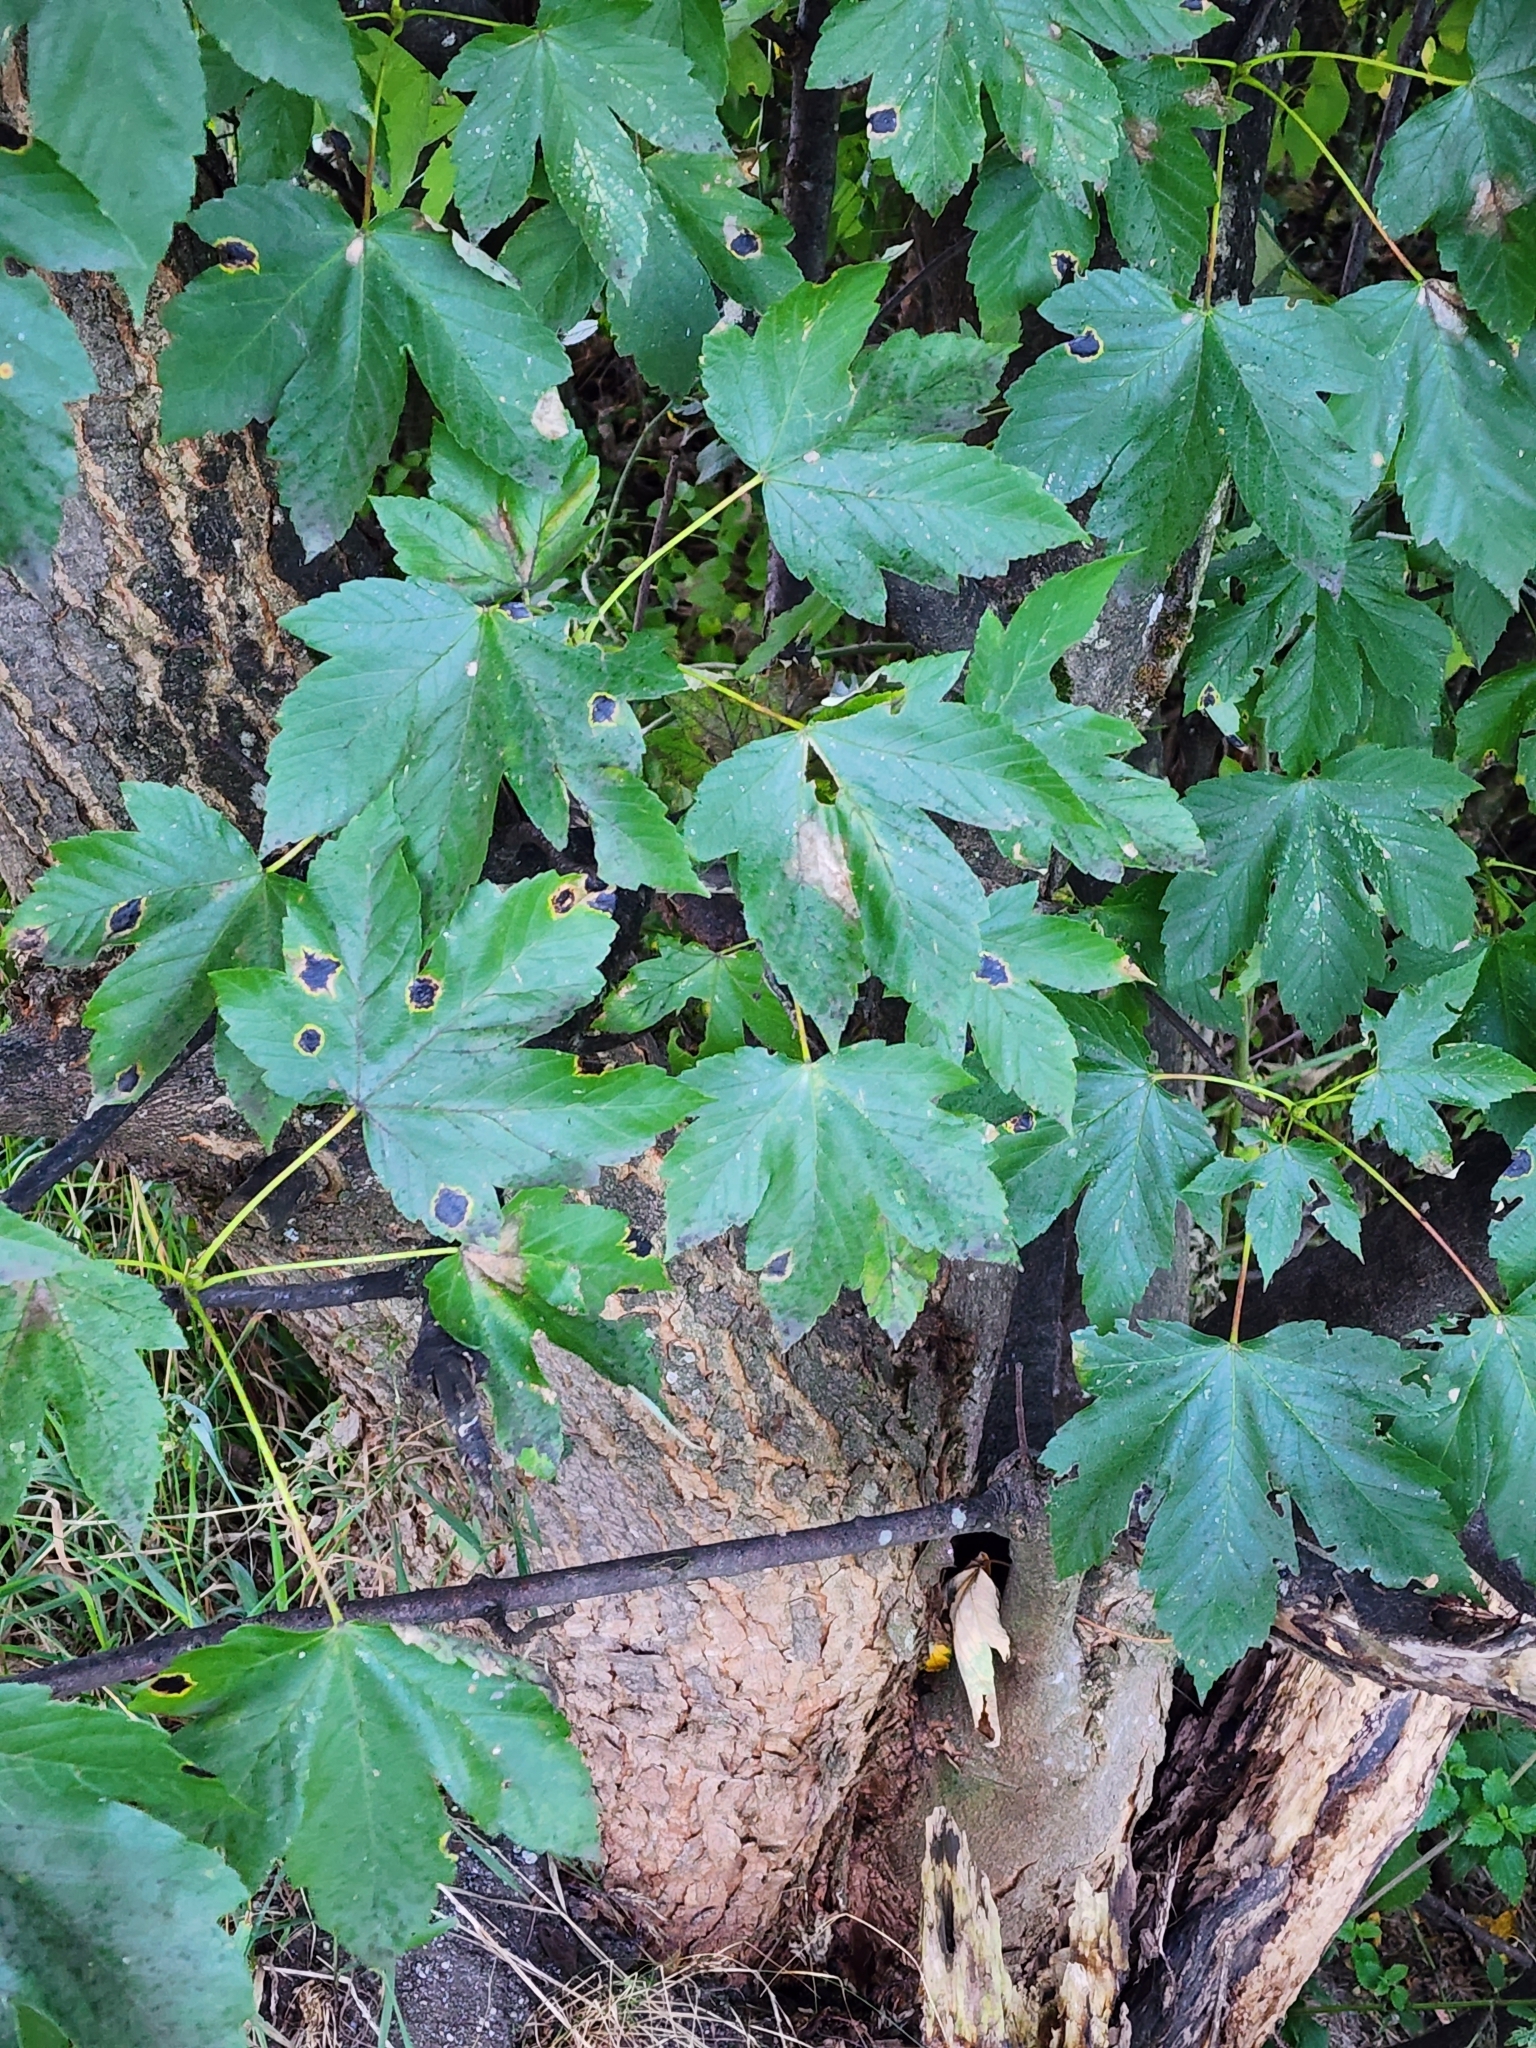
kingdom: Plantae
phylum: Tracheophyta
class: Magnoliopsida
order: Sapindales
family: Sapindaceae
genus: Acer
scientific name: Acer pseudoplatanus
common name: Sycamore
